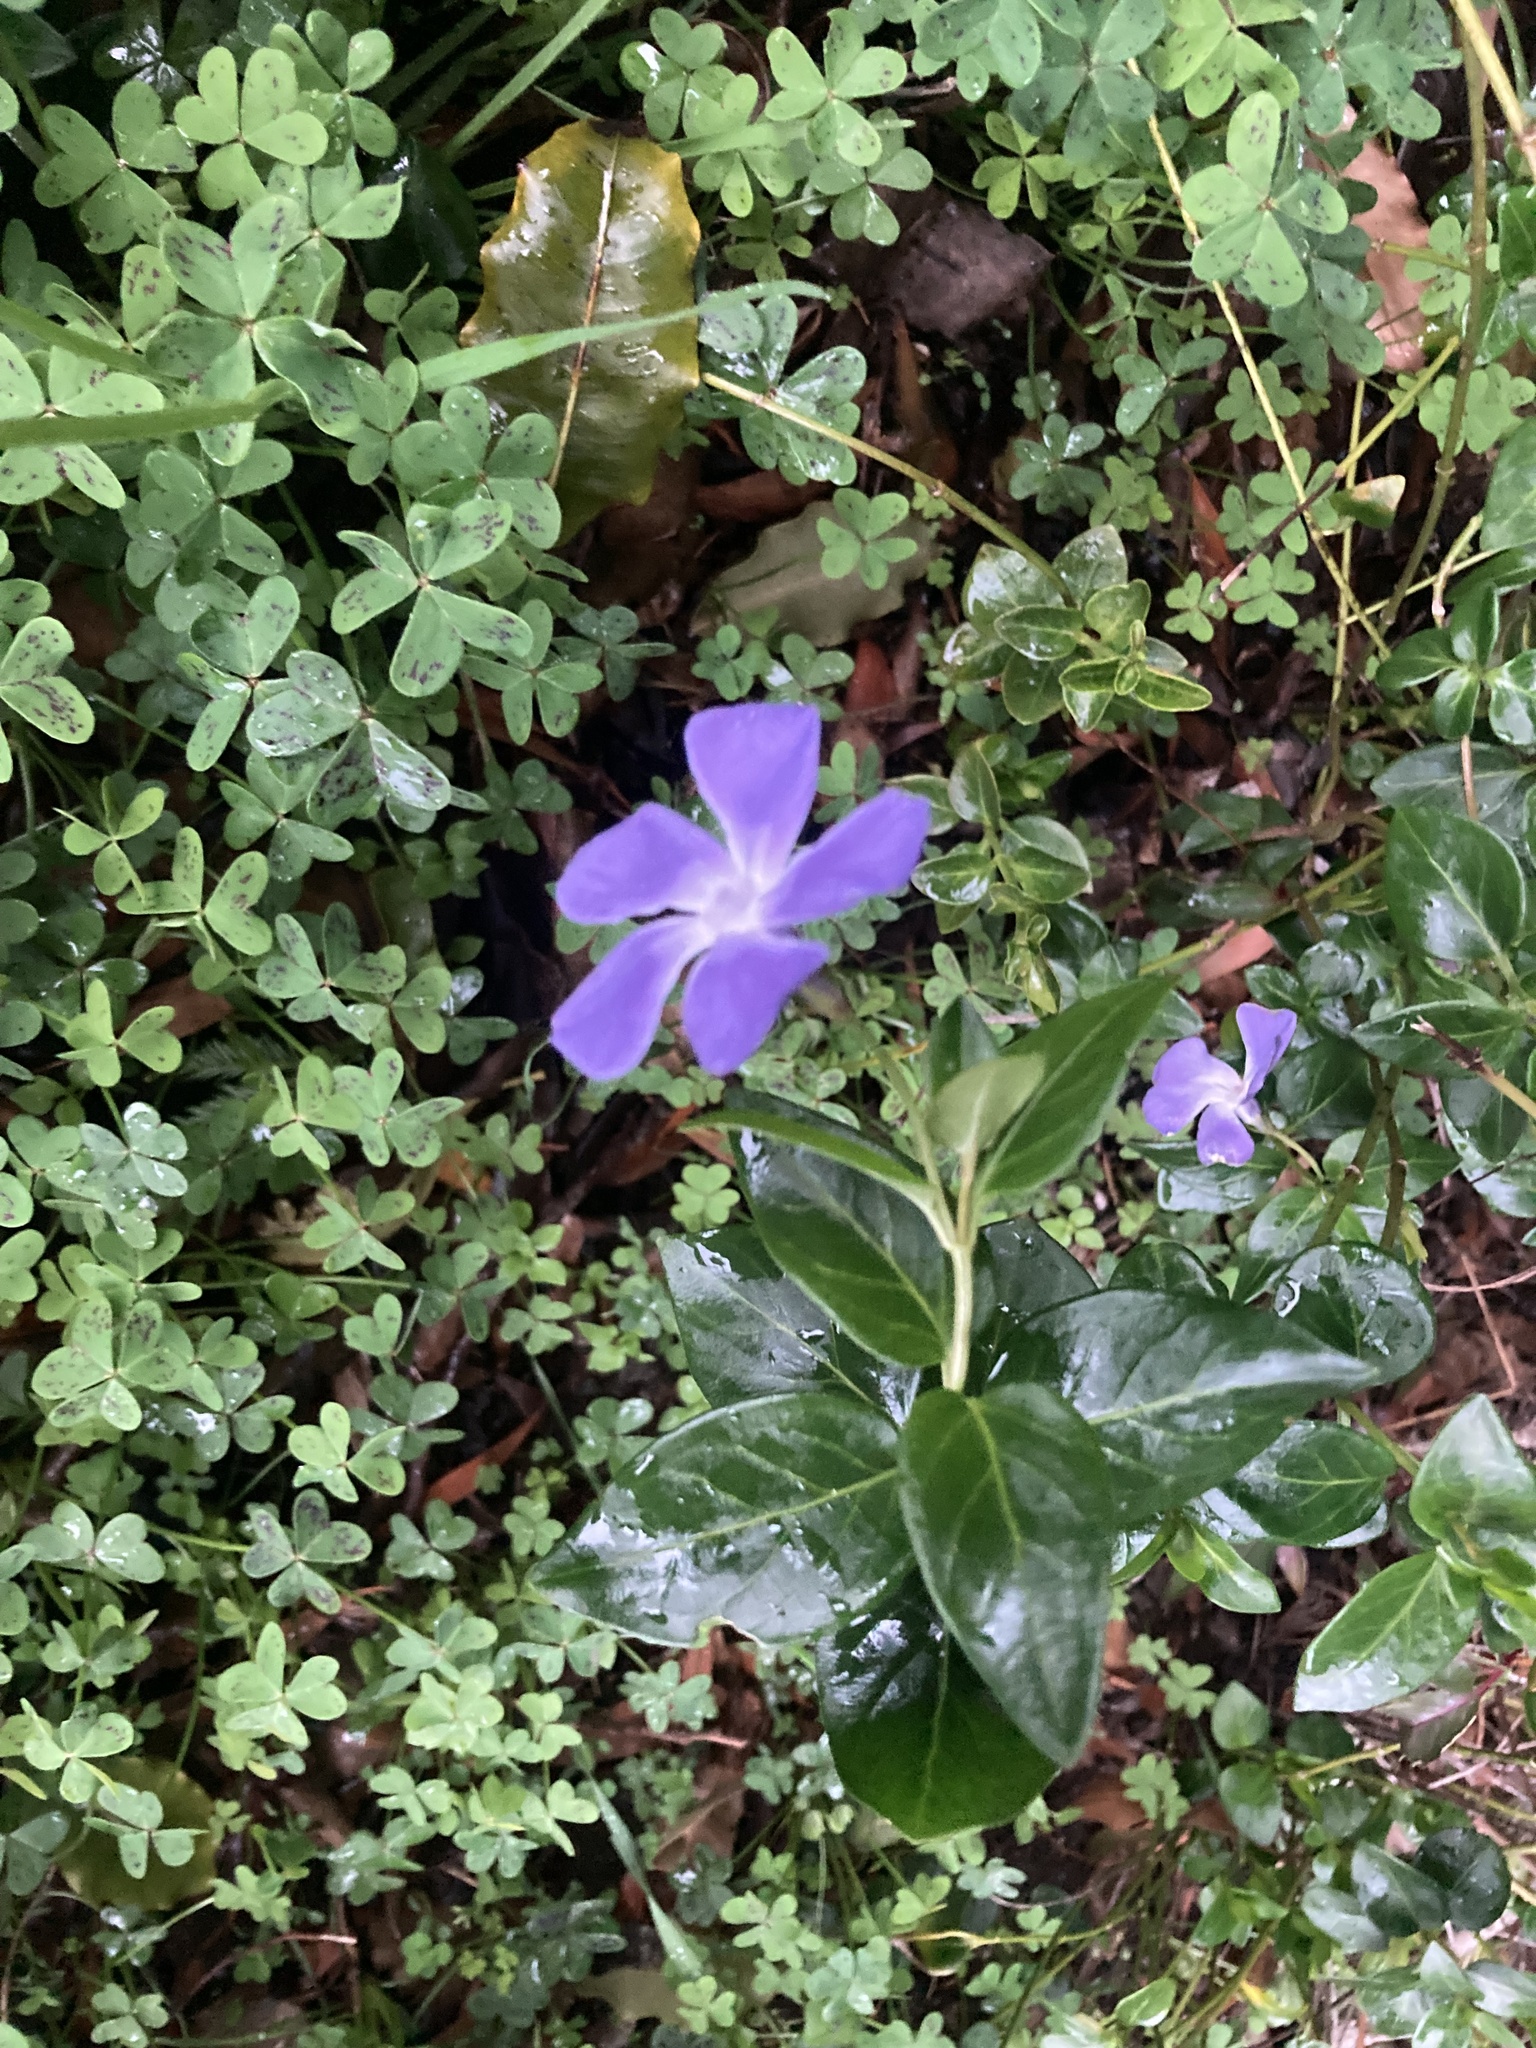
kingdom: Plantae
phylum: Tracheophyta
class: Magnoliopsida
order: Gentianales
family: Apocynaceae
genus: Vinca
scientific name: Vinca major
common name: Greater periwinkle
